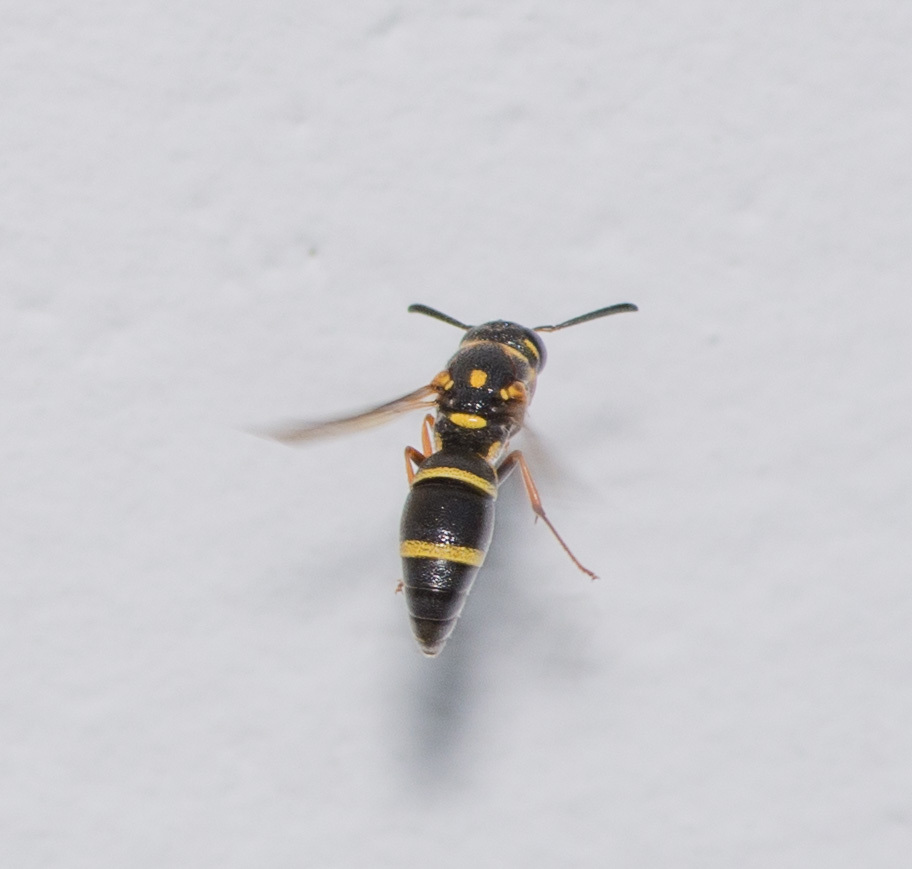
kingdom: Animalia
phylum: Arthropoda
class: Insecta
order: Hymenoptera
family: Eumenidae
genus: Parancistrocerus
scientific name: Parancistrocerus fulvipes
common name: Potter wasp
